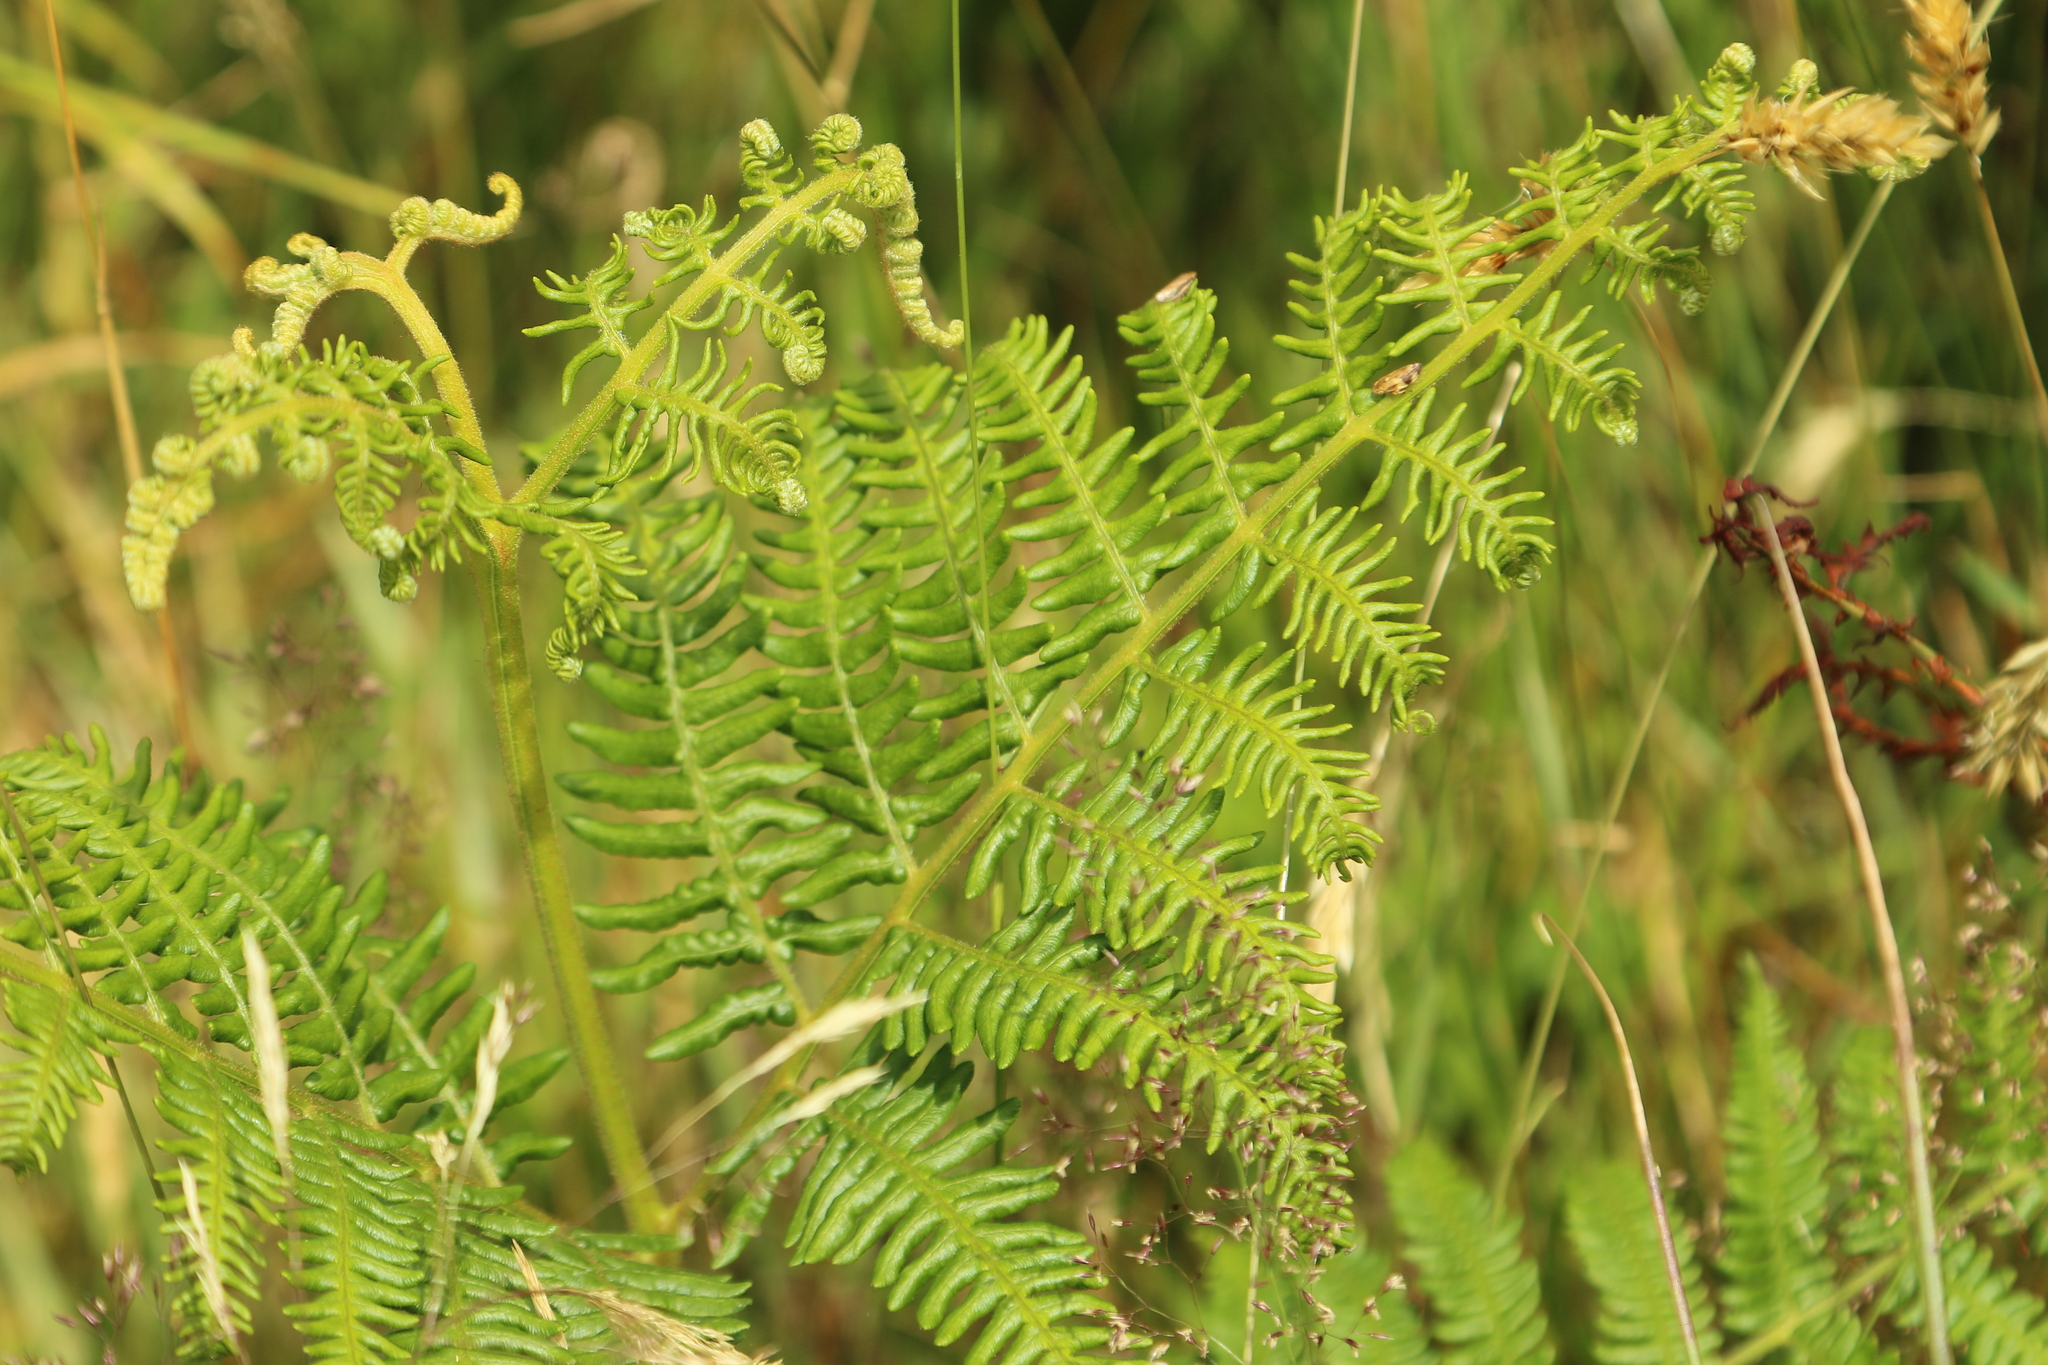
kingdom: Plantae
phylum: Tracheophyta
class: Polypodiopsida
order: Polypodiales
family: Dennstaedtiaceae
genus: Pteridium
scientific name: Pteridium aquilinum
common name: Bracken
